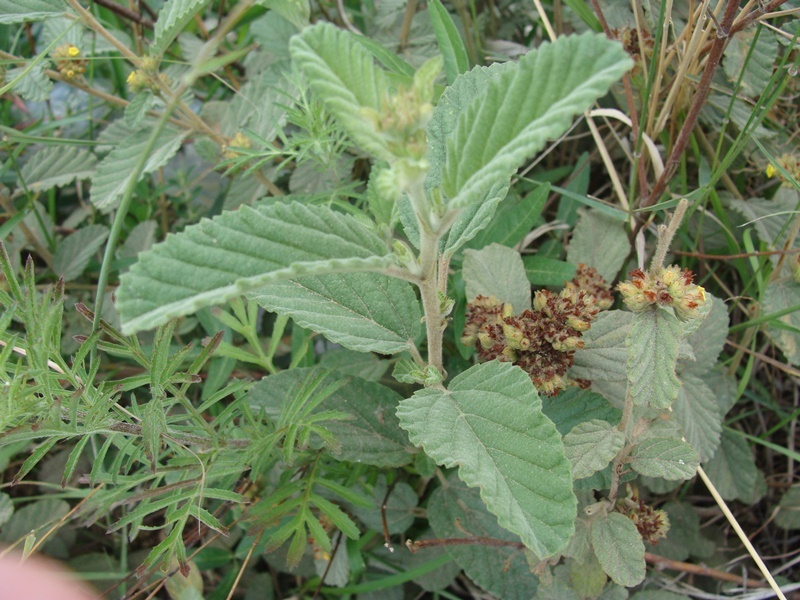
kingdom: Plantae
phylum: Tracheophyta
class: Magnoliopsida
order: Malvales
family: Malvaceae
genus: Waltheria
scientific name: Waltheria indica
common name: Leather-coat
